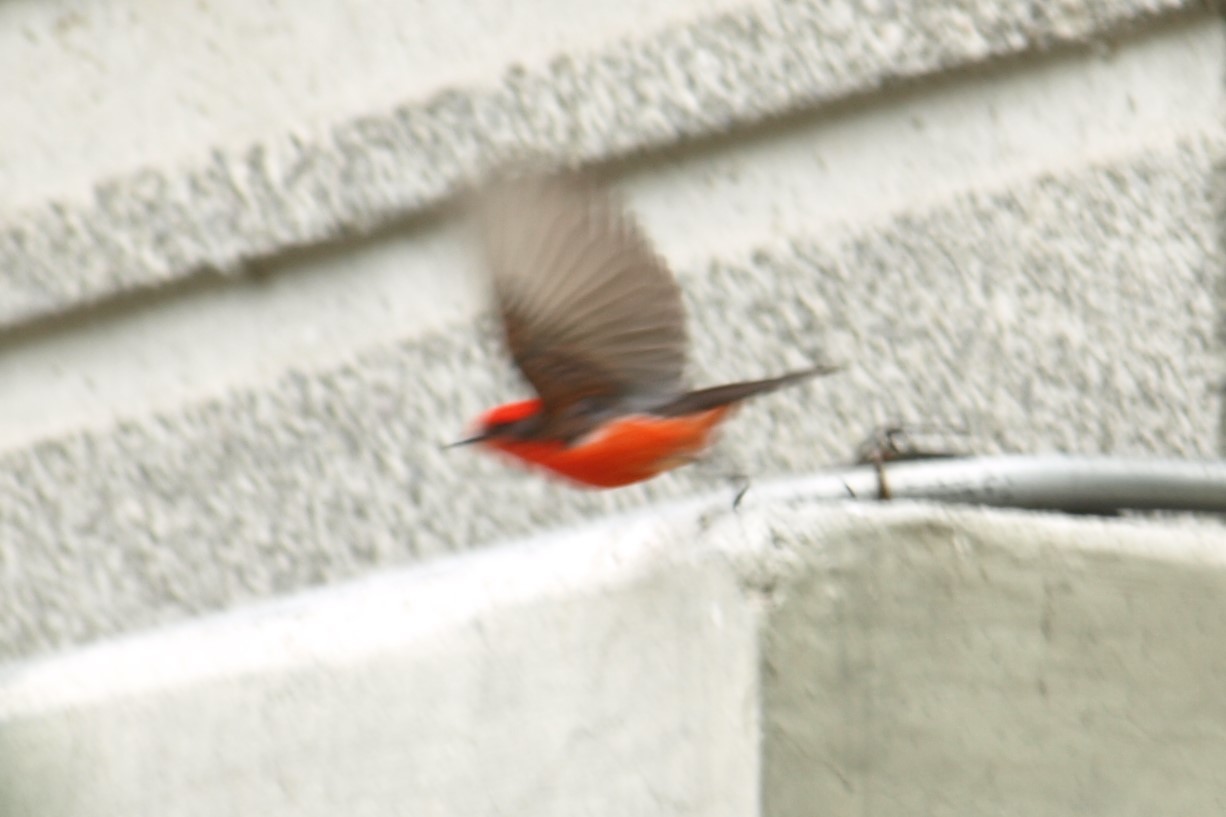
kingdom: Animalia
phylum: Chordata
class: Aves
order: Passeriformes
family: Tyrannidae
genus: Pyrocephalus
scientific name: Pyrocephalus rubinus
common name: Vermilion flycatcher
